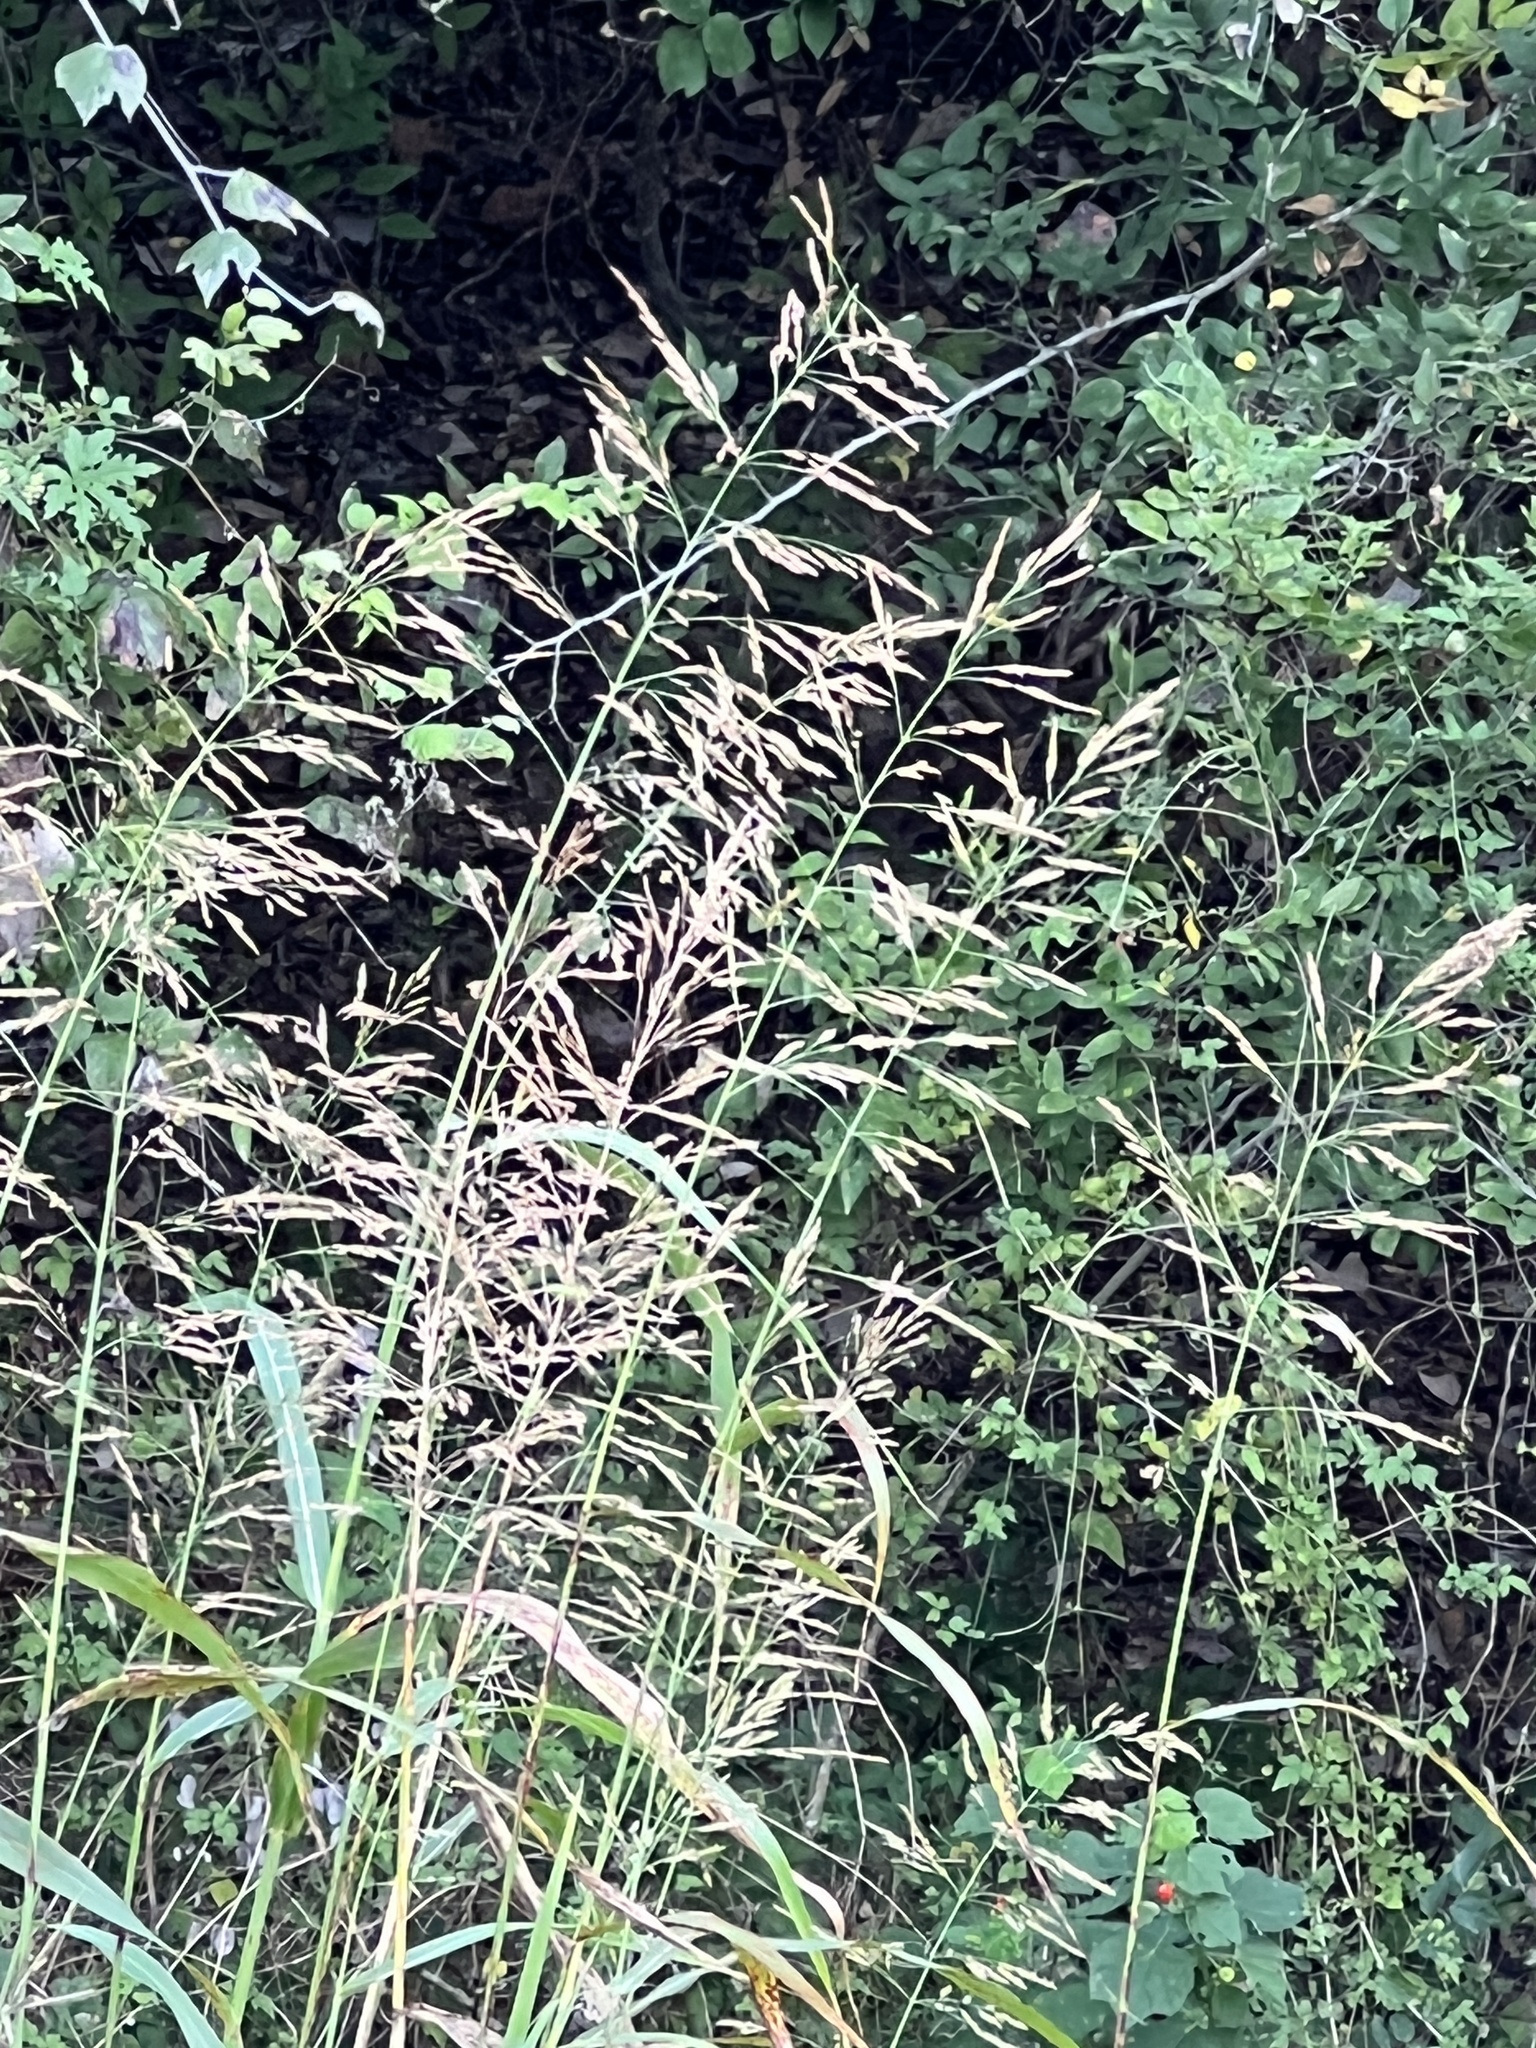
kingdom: Plantae
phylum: Tracheophyta
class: Liliopsida
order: Poales
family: Poaceae
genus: Sorghum
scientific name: Sorghum halepense
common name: Johnson-grass
